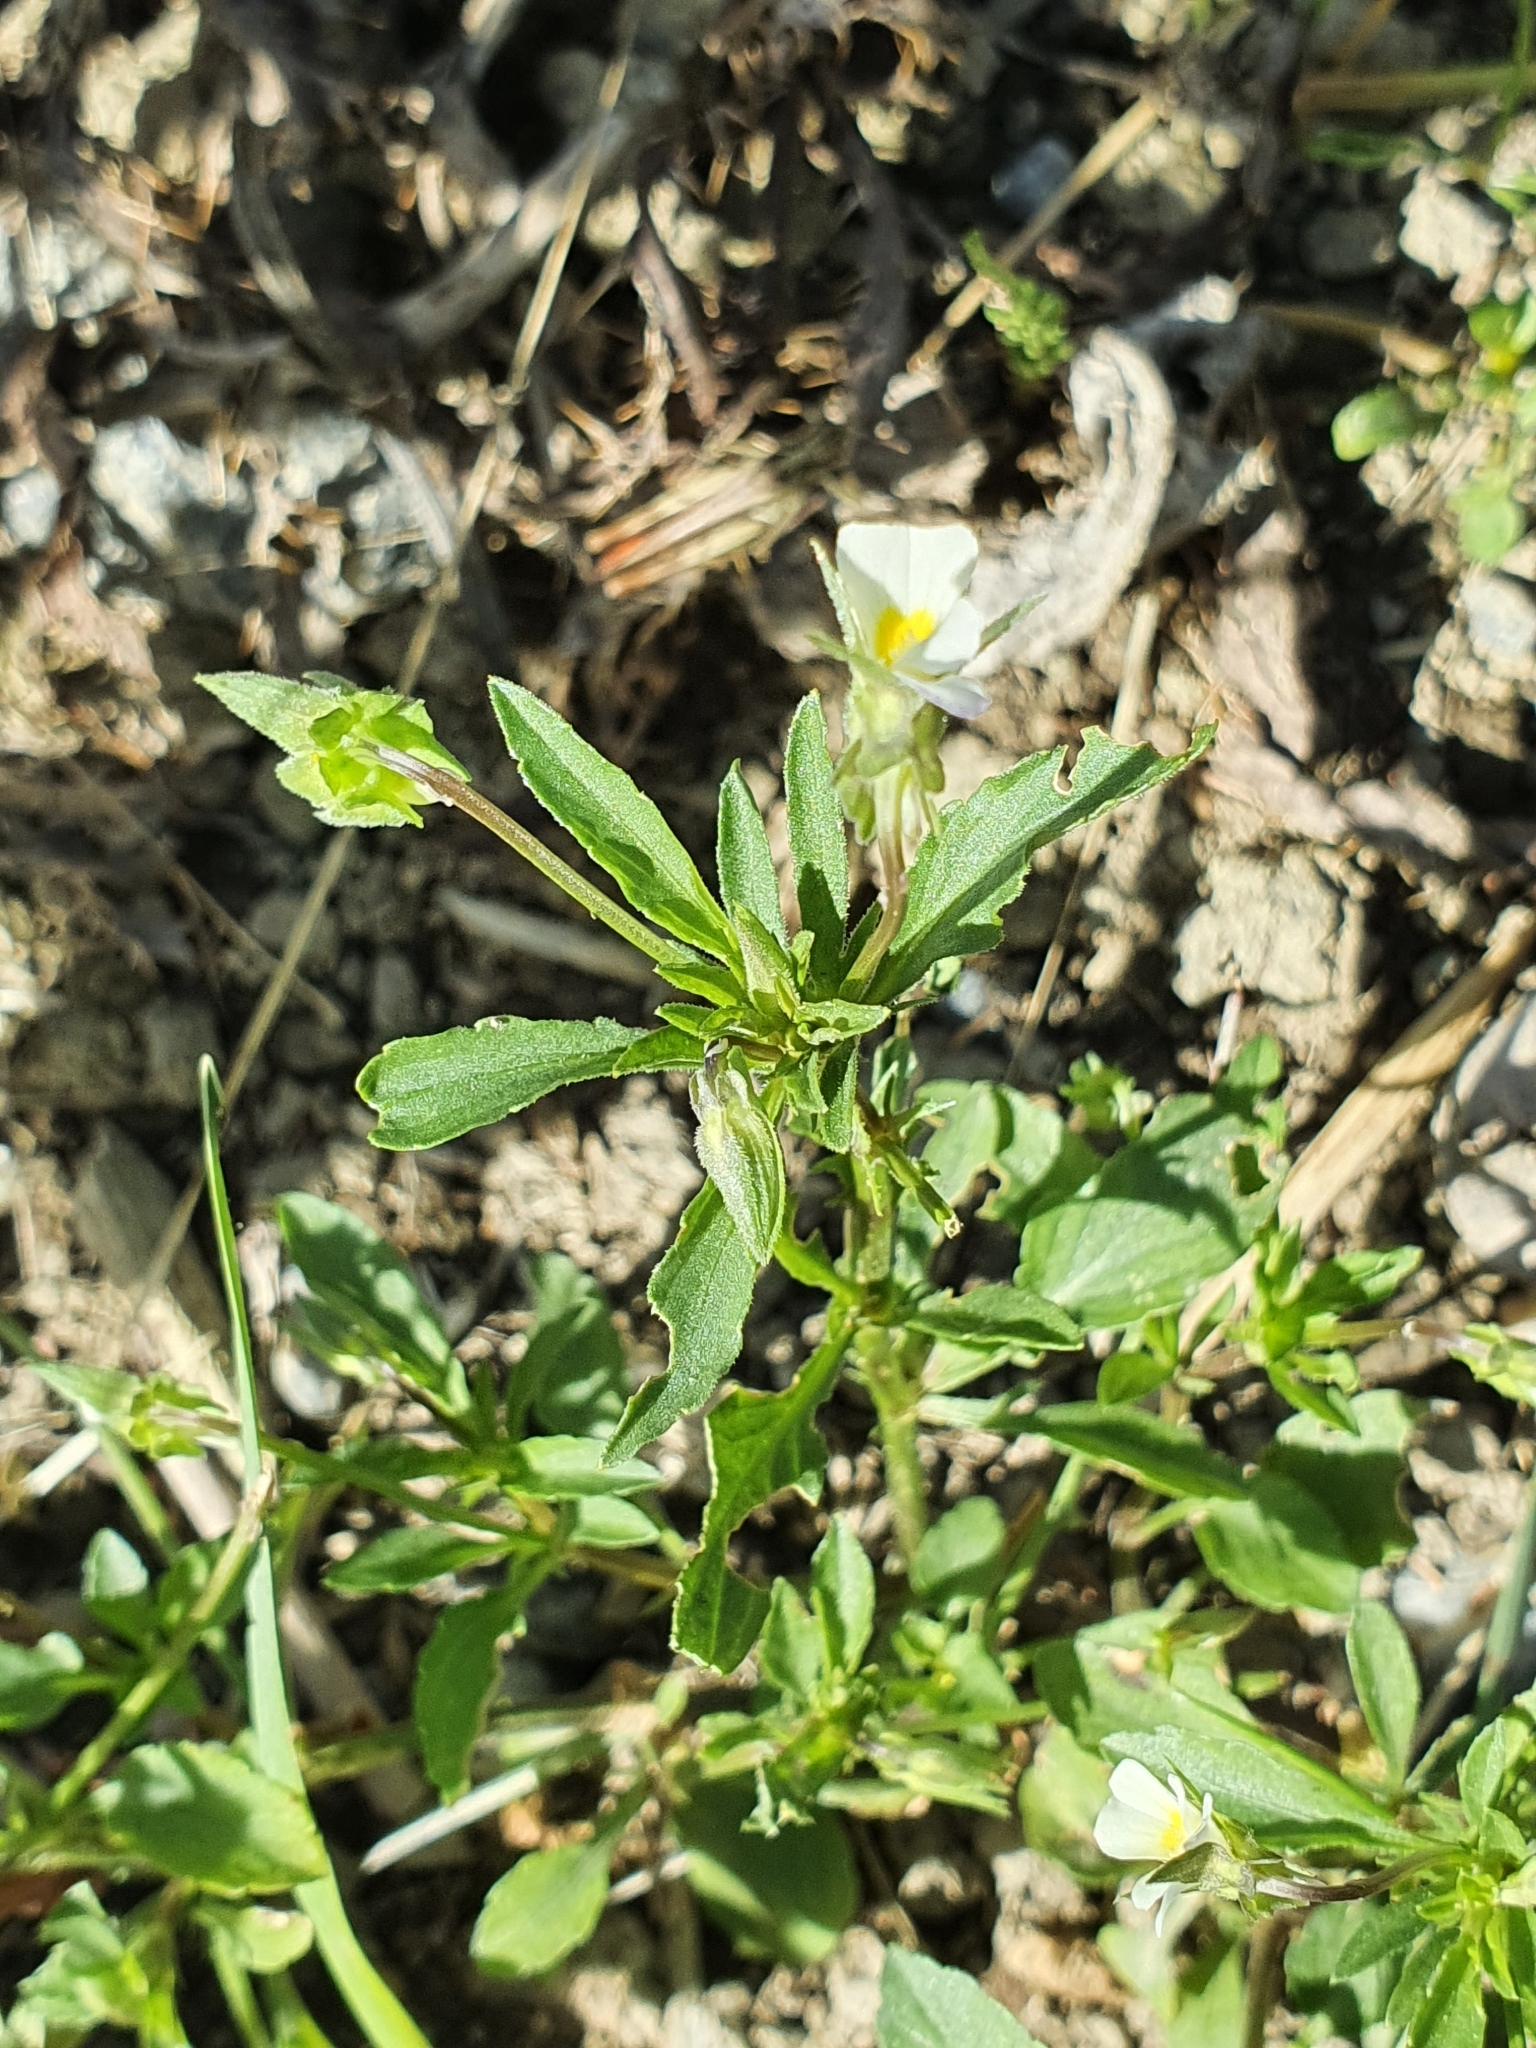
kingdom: Plantae
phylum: Tracheophyta
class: Magnoliopsida
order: Malpighiales
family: Violaceae
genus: Viola
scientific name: Viola arvensis
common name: Field pansy
